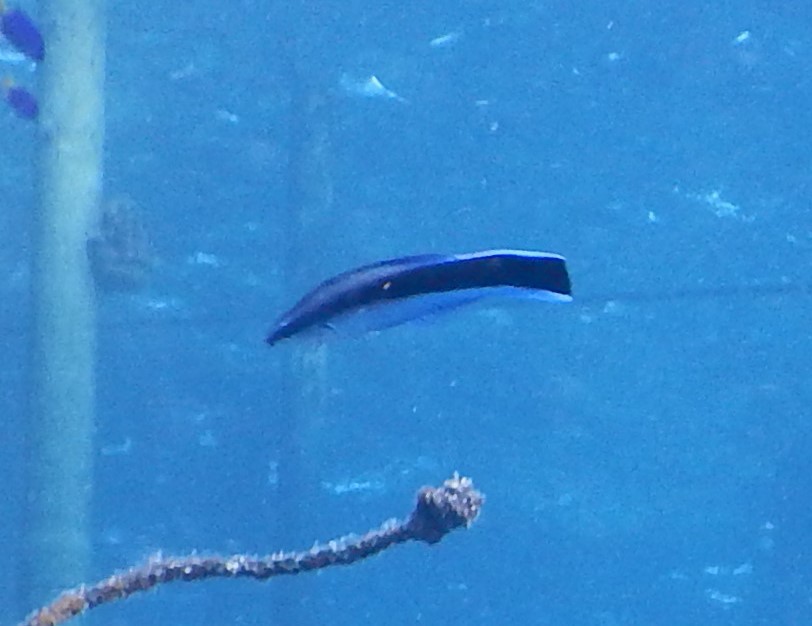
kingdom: Animalia
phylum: Chordata
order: Perciformes
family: Labridae
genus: Labroides
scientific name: Labroides dimidiatus
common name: Blue diesel wrasse
